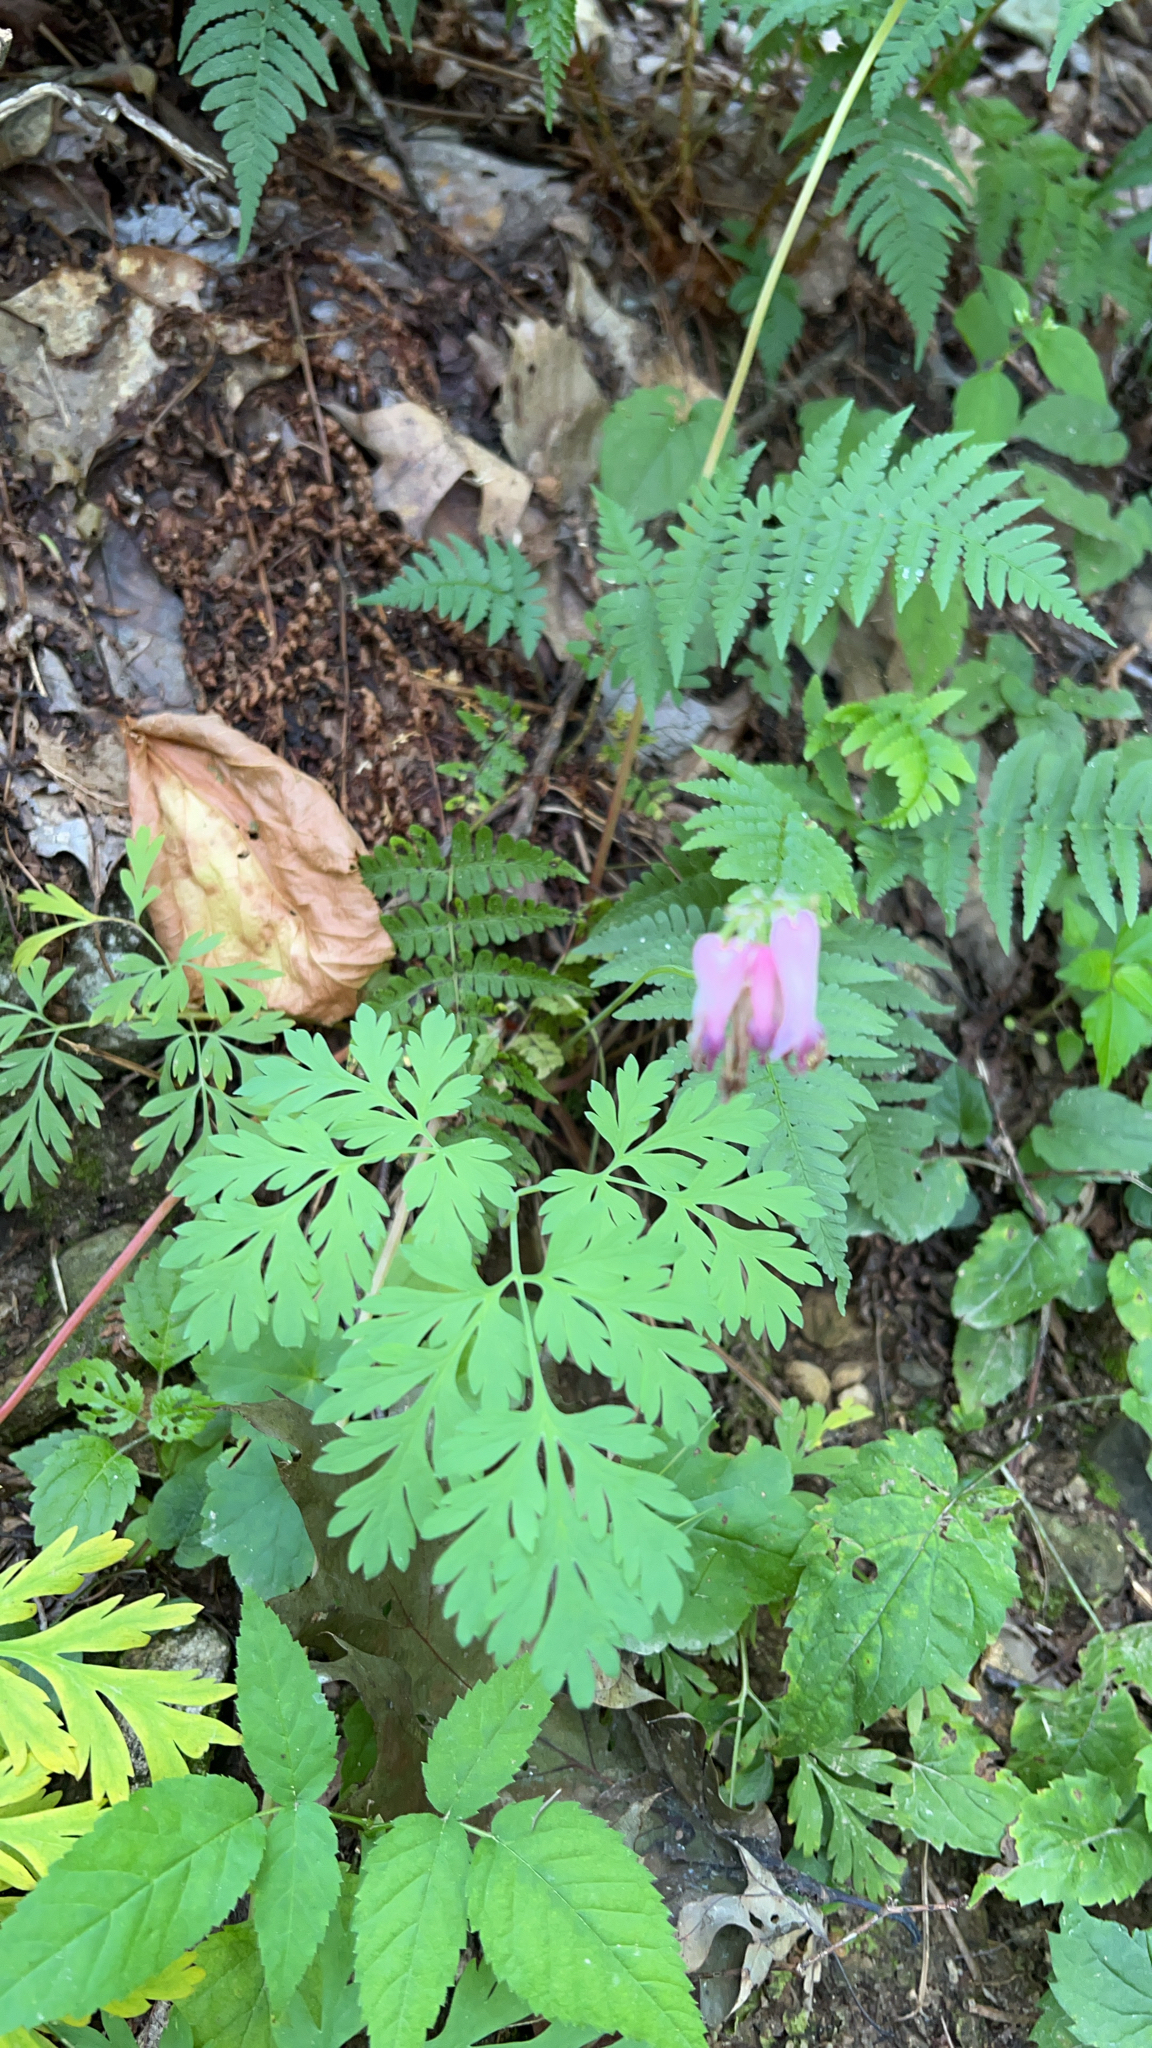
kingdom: Plantae
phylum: Tracheophyta
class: Magnoliopsida
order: Ranunculales
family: Papaveraceae
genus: Dicentra
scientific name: Dicentra eximia
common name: Turkey-corn
